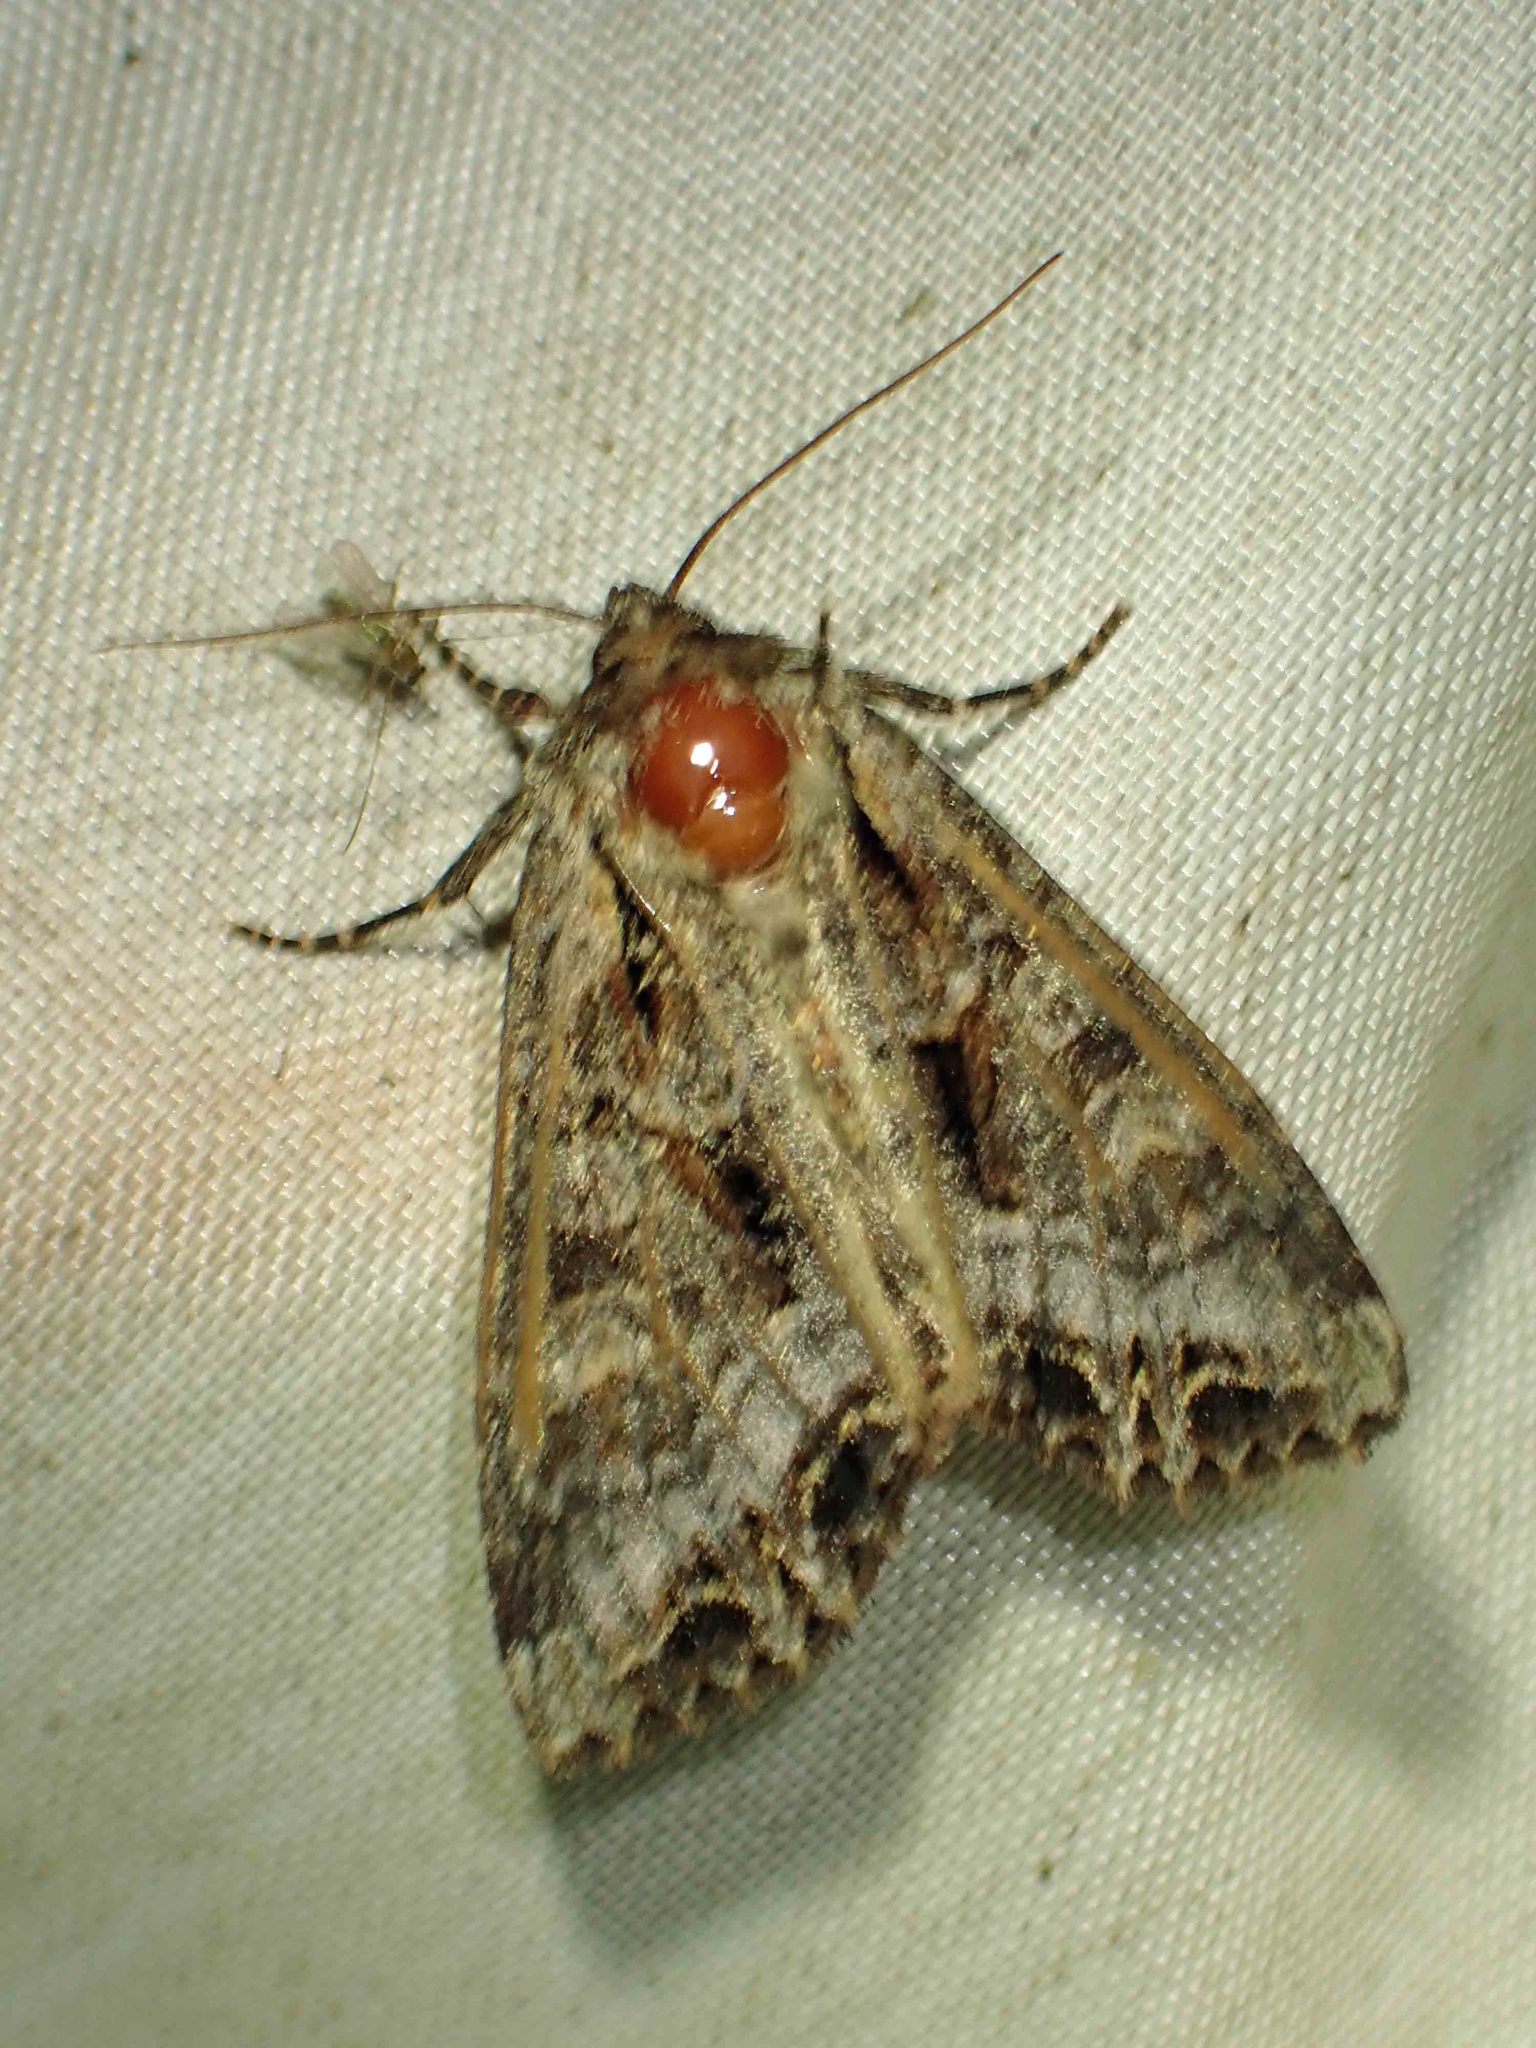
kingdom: Animalia
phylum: Arthropoda
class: Insecta
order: Lepidoptera
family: Noctuidae
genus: Lacanobia
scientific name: Lacanobia grandis
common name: Grand arches moth
